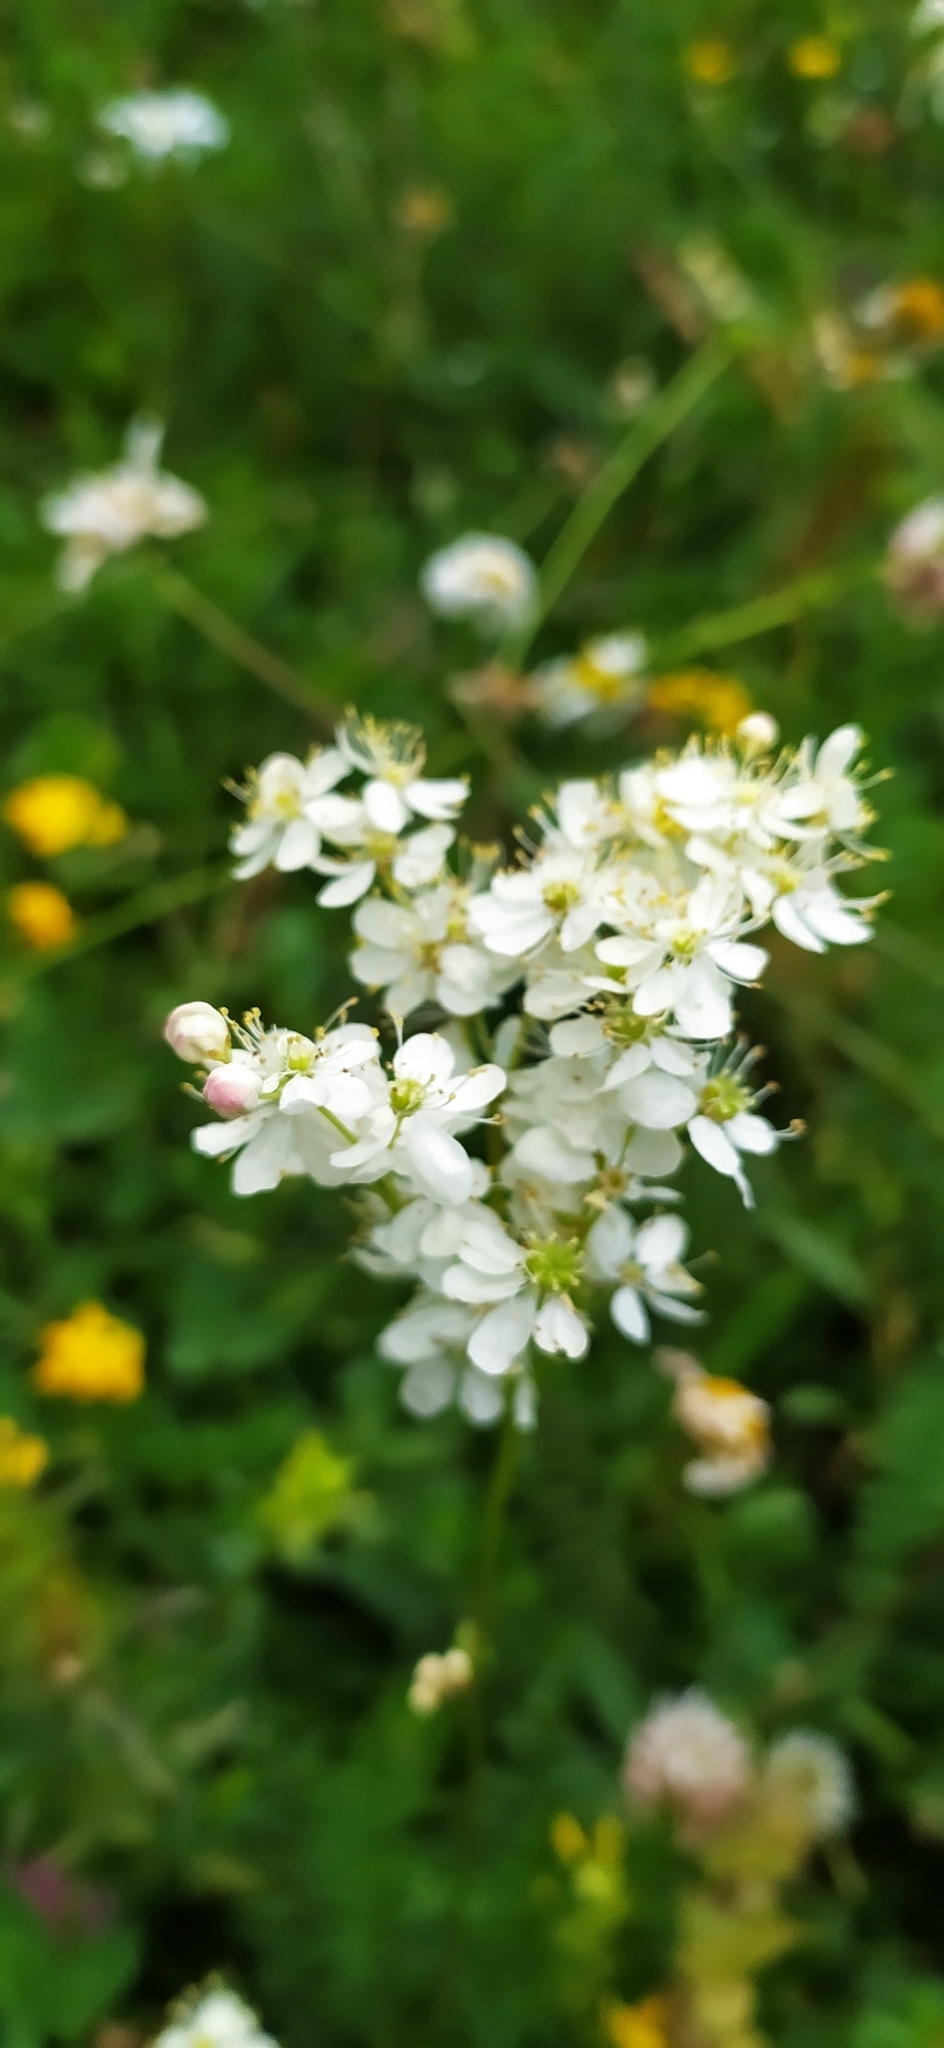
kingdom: Plantae
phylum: Tracheophyta
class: Magnoliopsida
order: Rosales
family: Rosaceae
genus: Filipendula
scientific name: Filipendula vulgaris
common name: Dropwort
